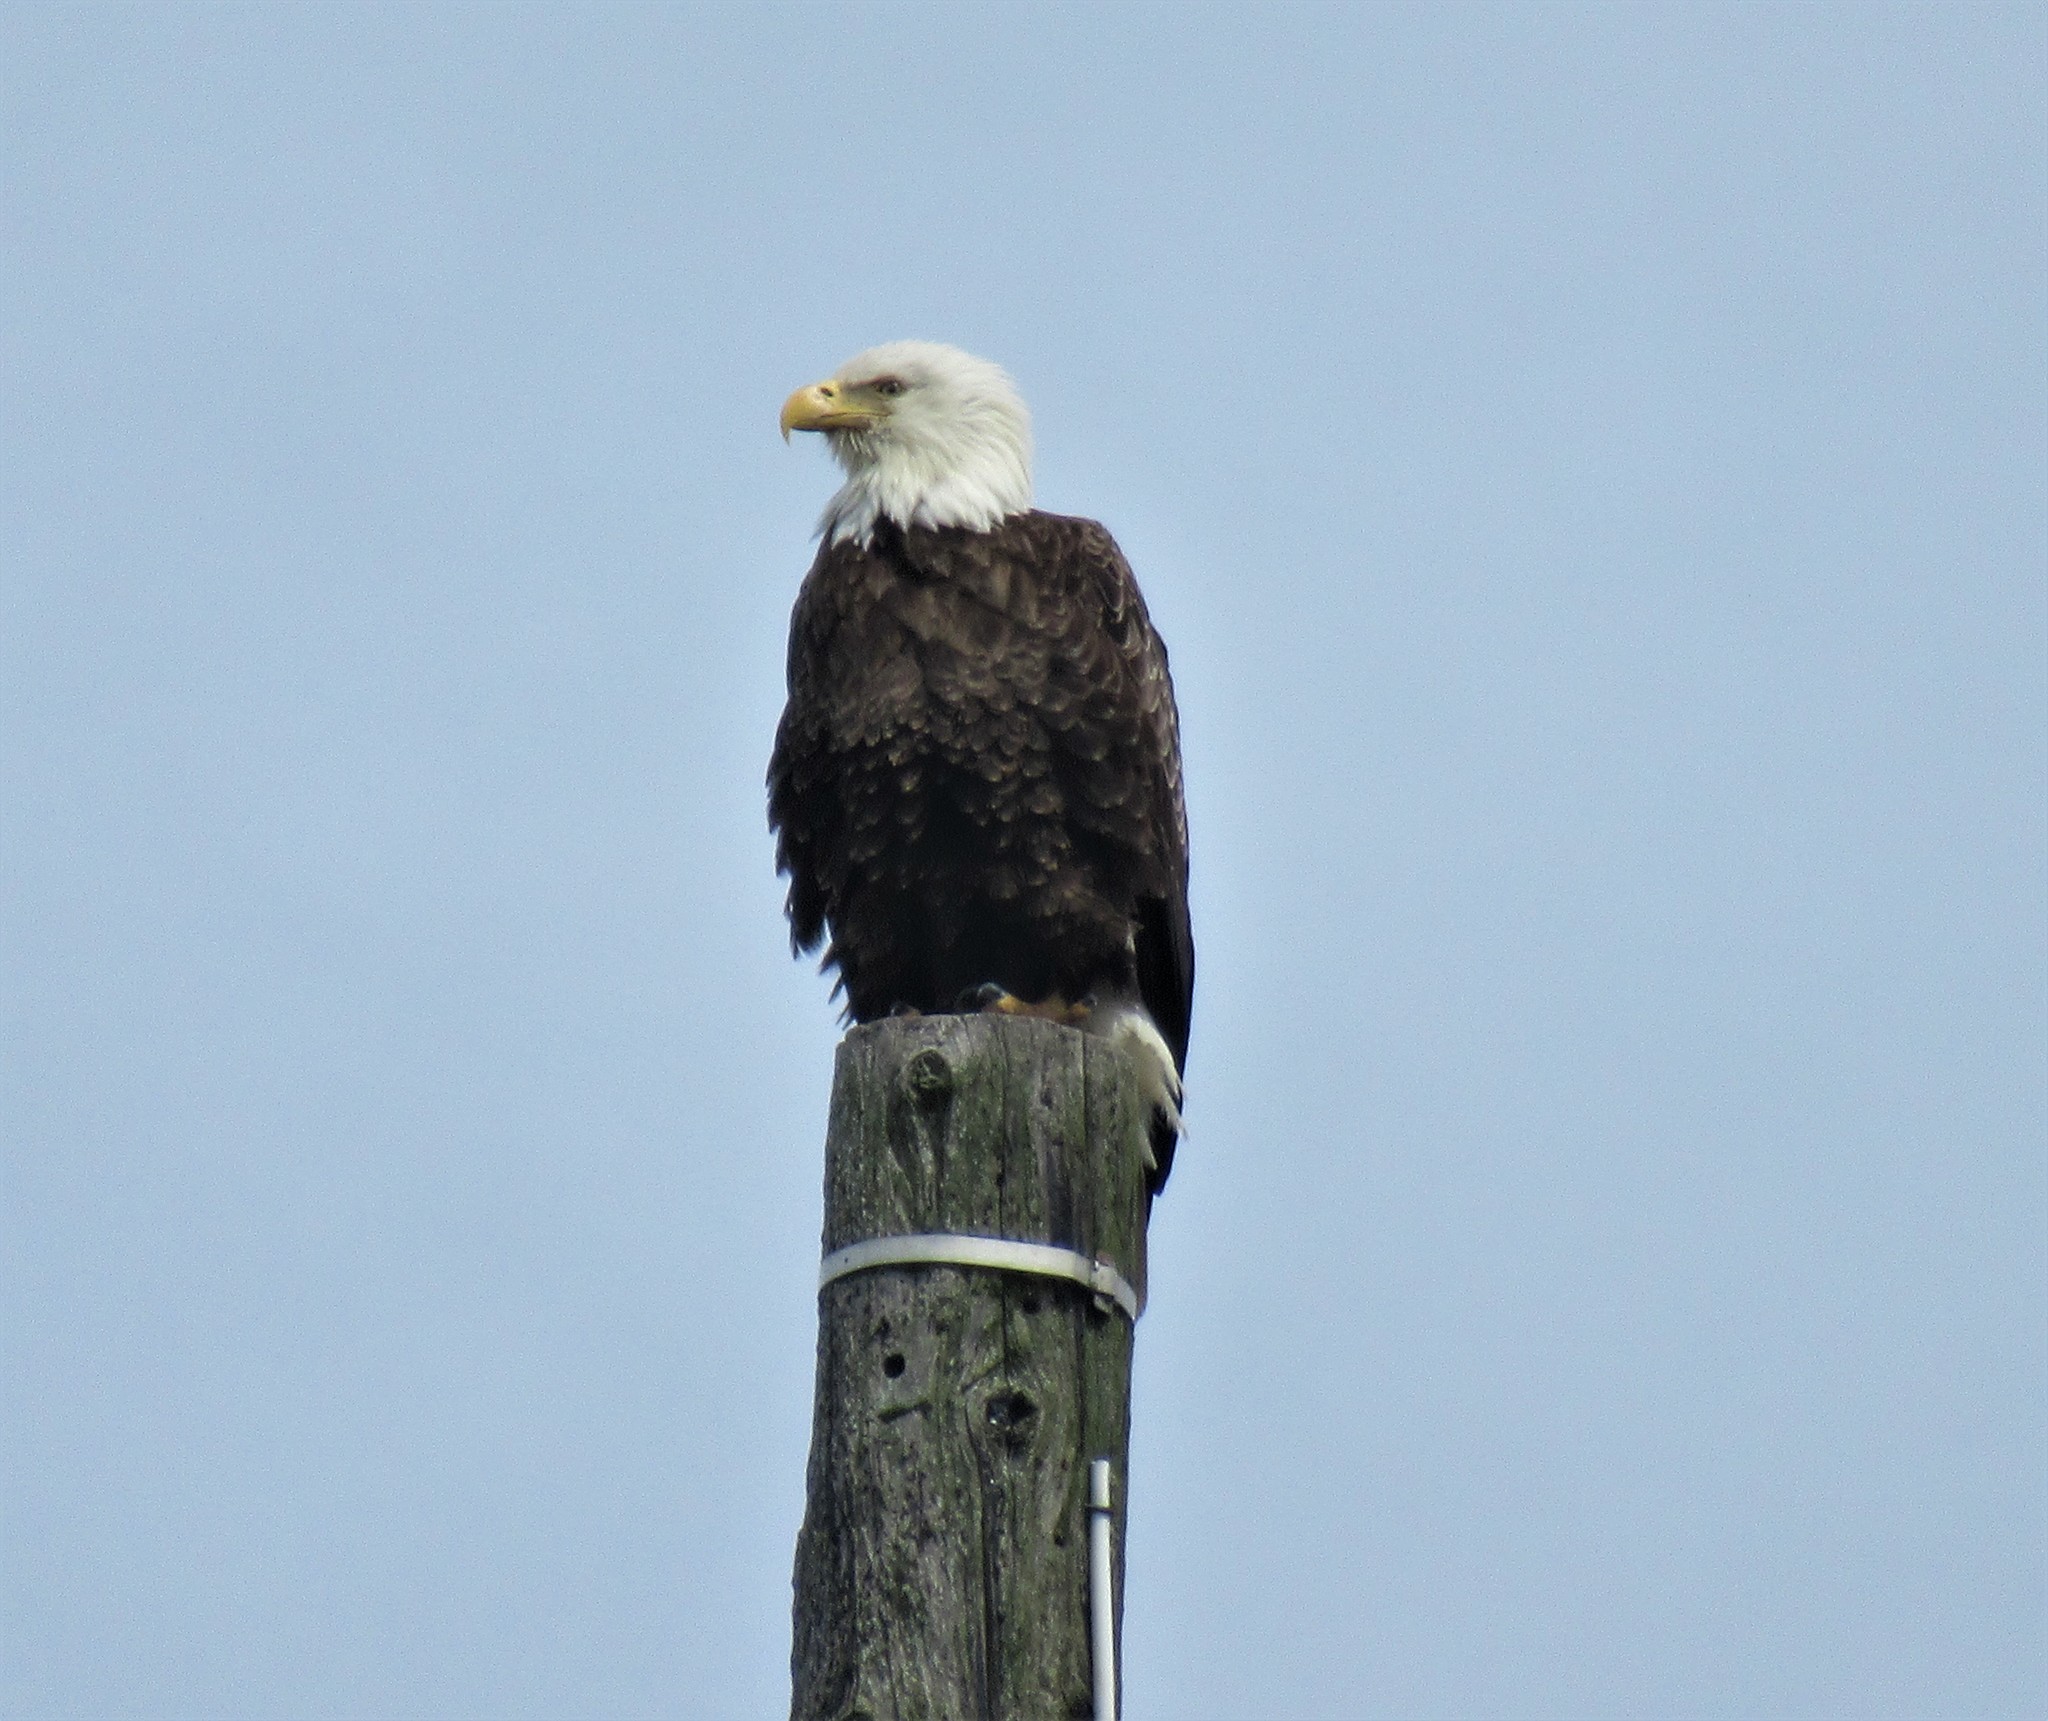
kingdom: Animalia
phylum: Chordata
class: Aves
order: Accipitriformes
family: Accipitridae
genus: Haliaeetus
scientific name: Haliaeetus leucocephalus
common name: Bald eagle
